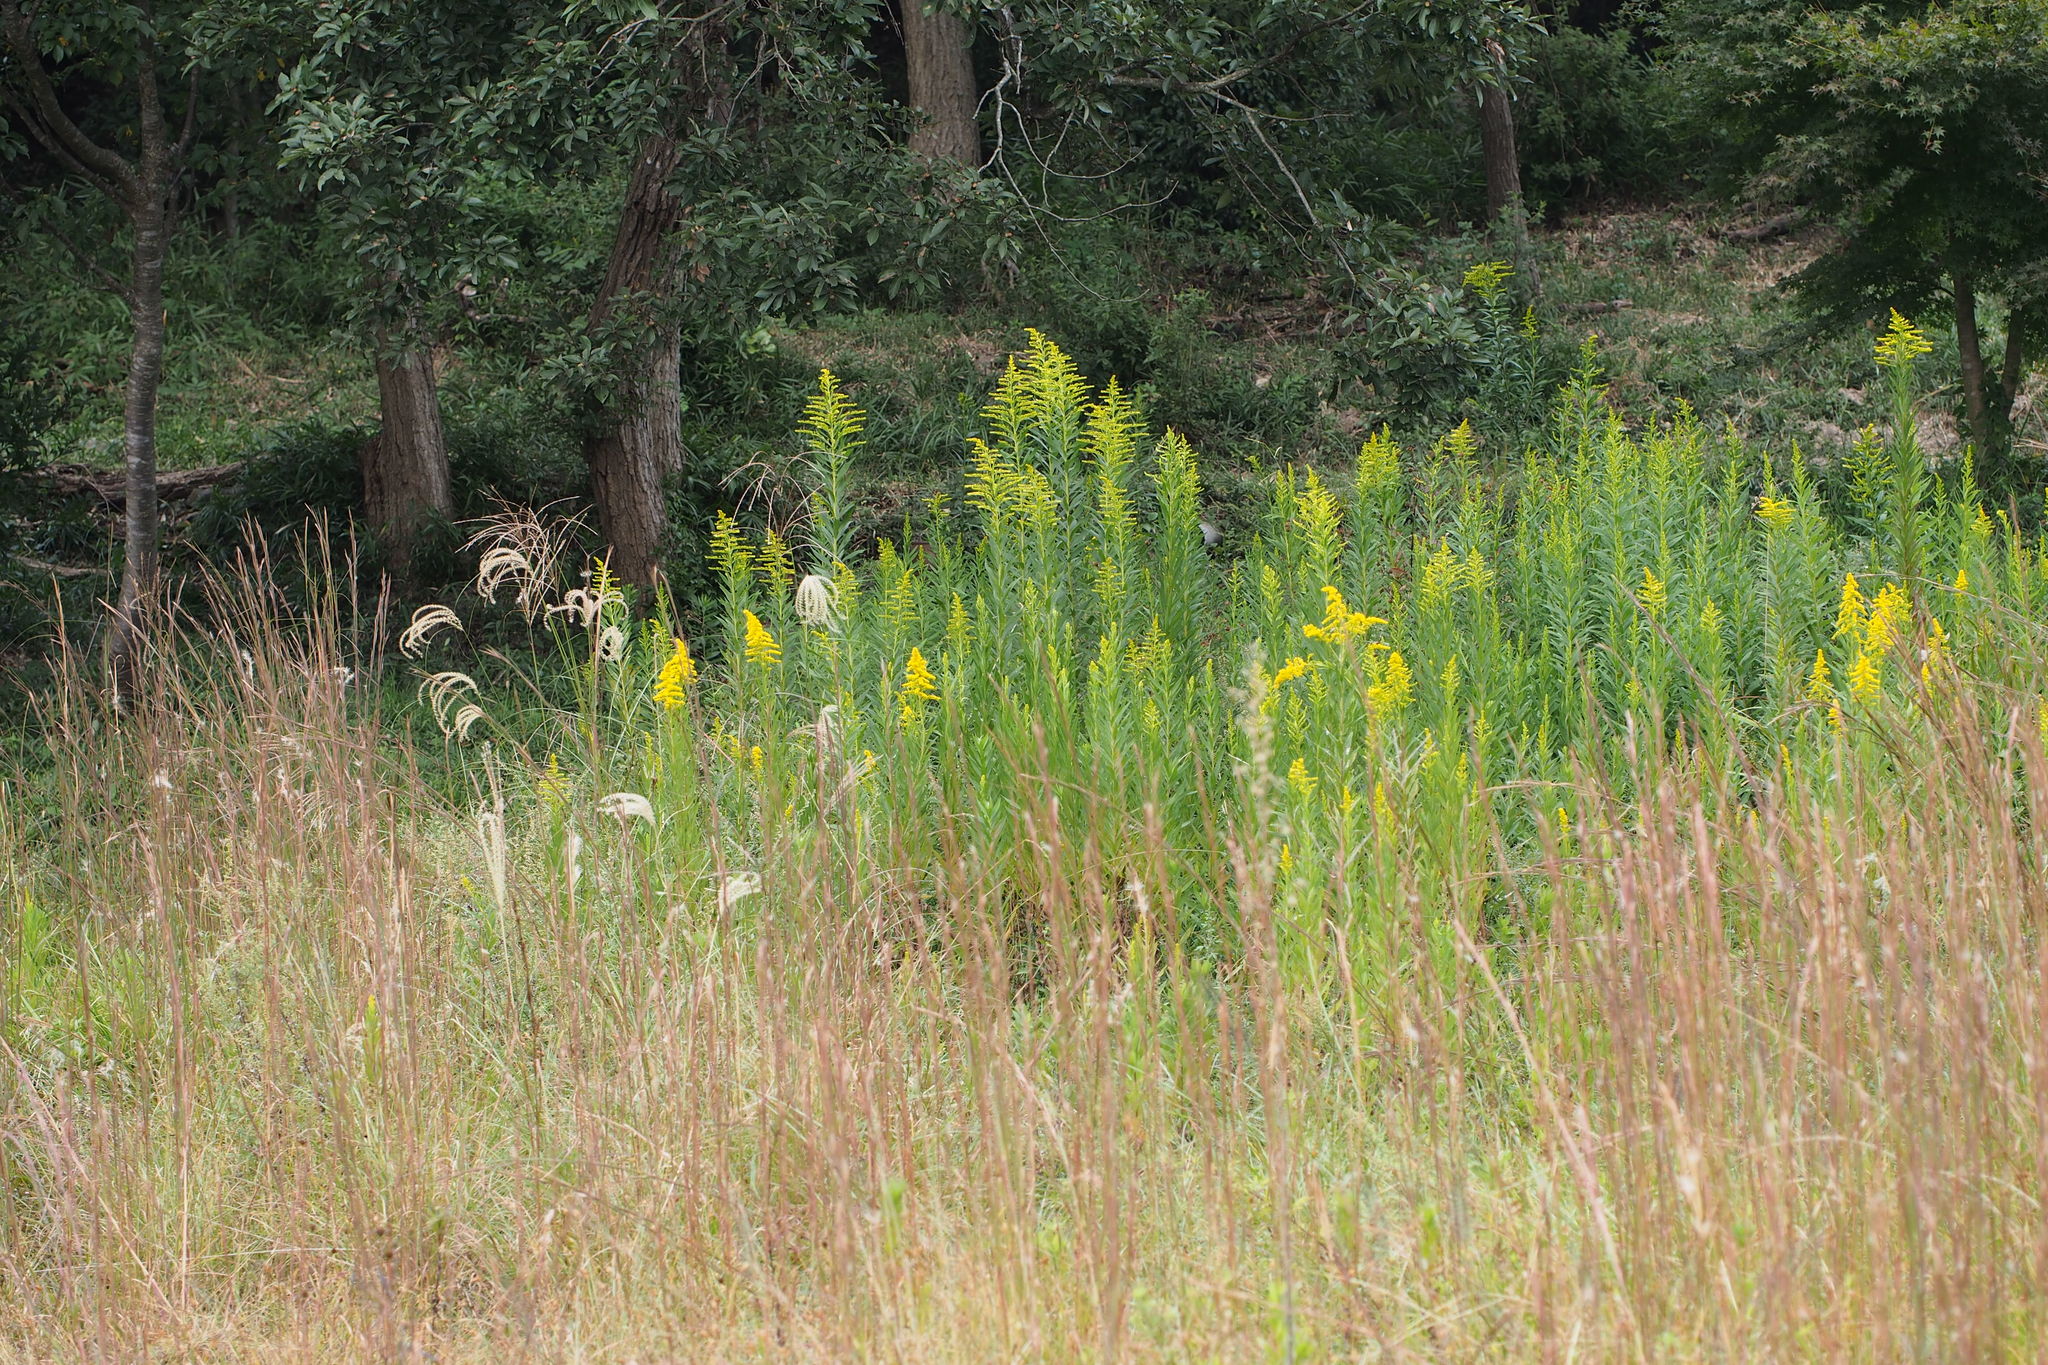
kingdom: Plantae
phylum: Tracheophyta
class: Magnoliopsida
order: Asterales
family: Asteraceae
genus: Solidago
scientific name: Solidago altissima
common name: Late goldenrod
